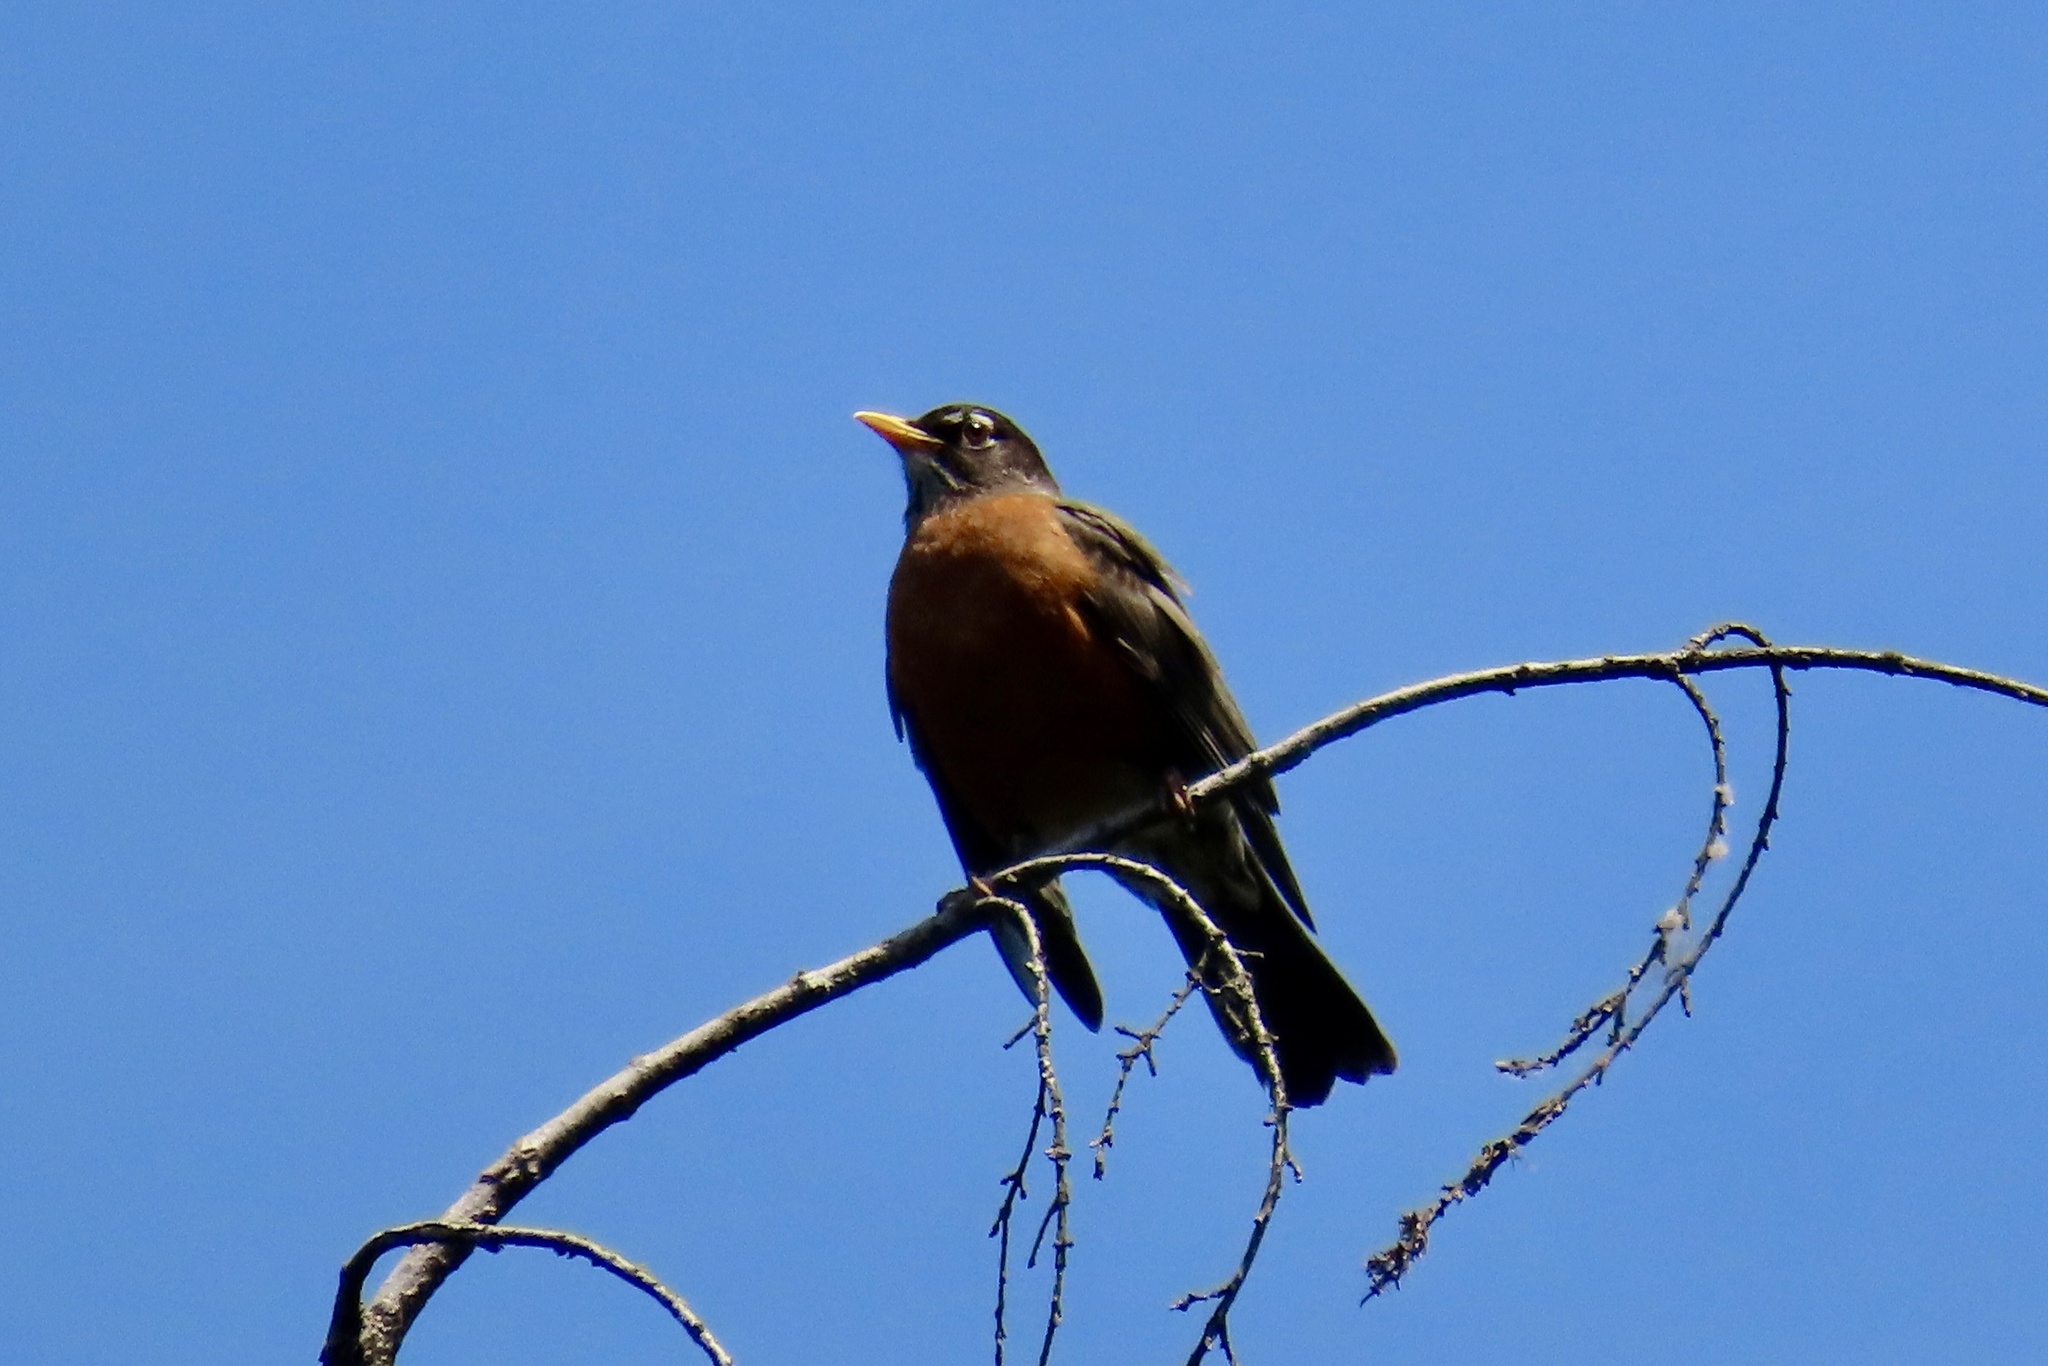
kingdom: Animalia
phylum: Chordata
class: Aves
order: Passeriformes
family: Turdidae
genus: Turdus
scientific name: Turdus migratorius
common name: American robin
